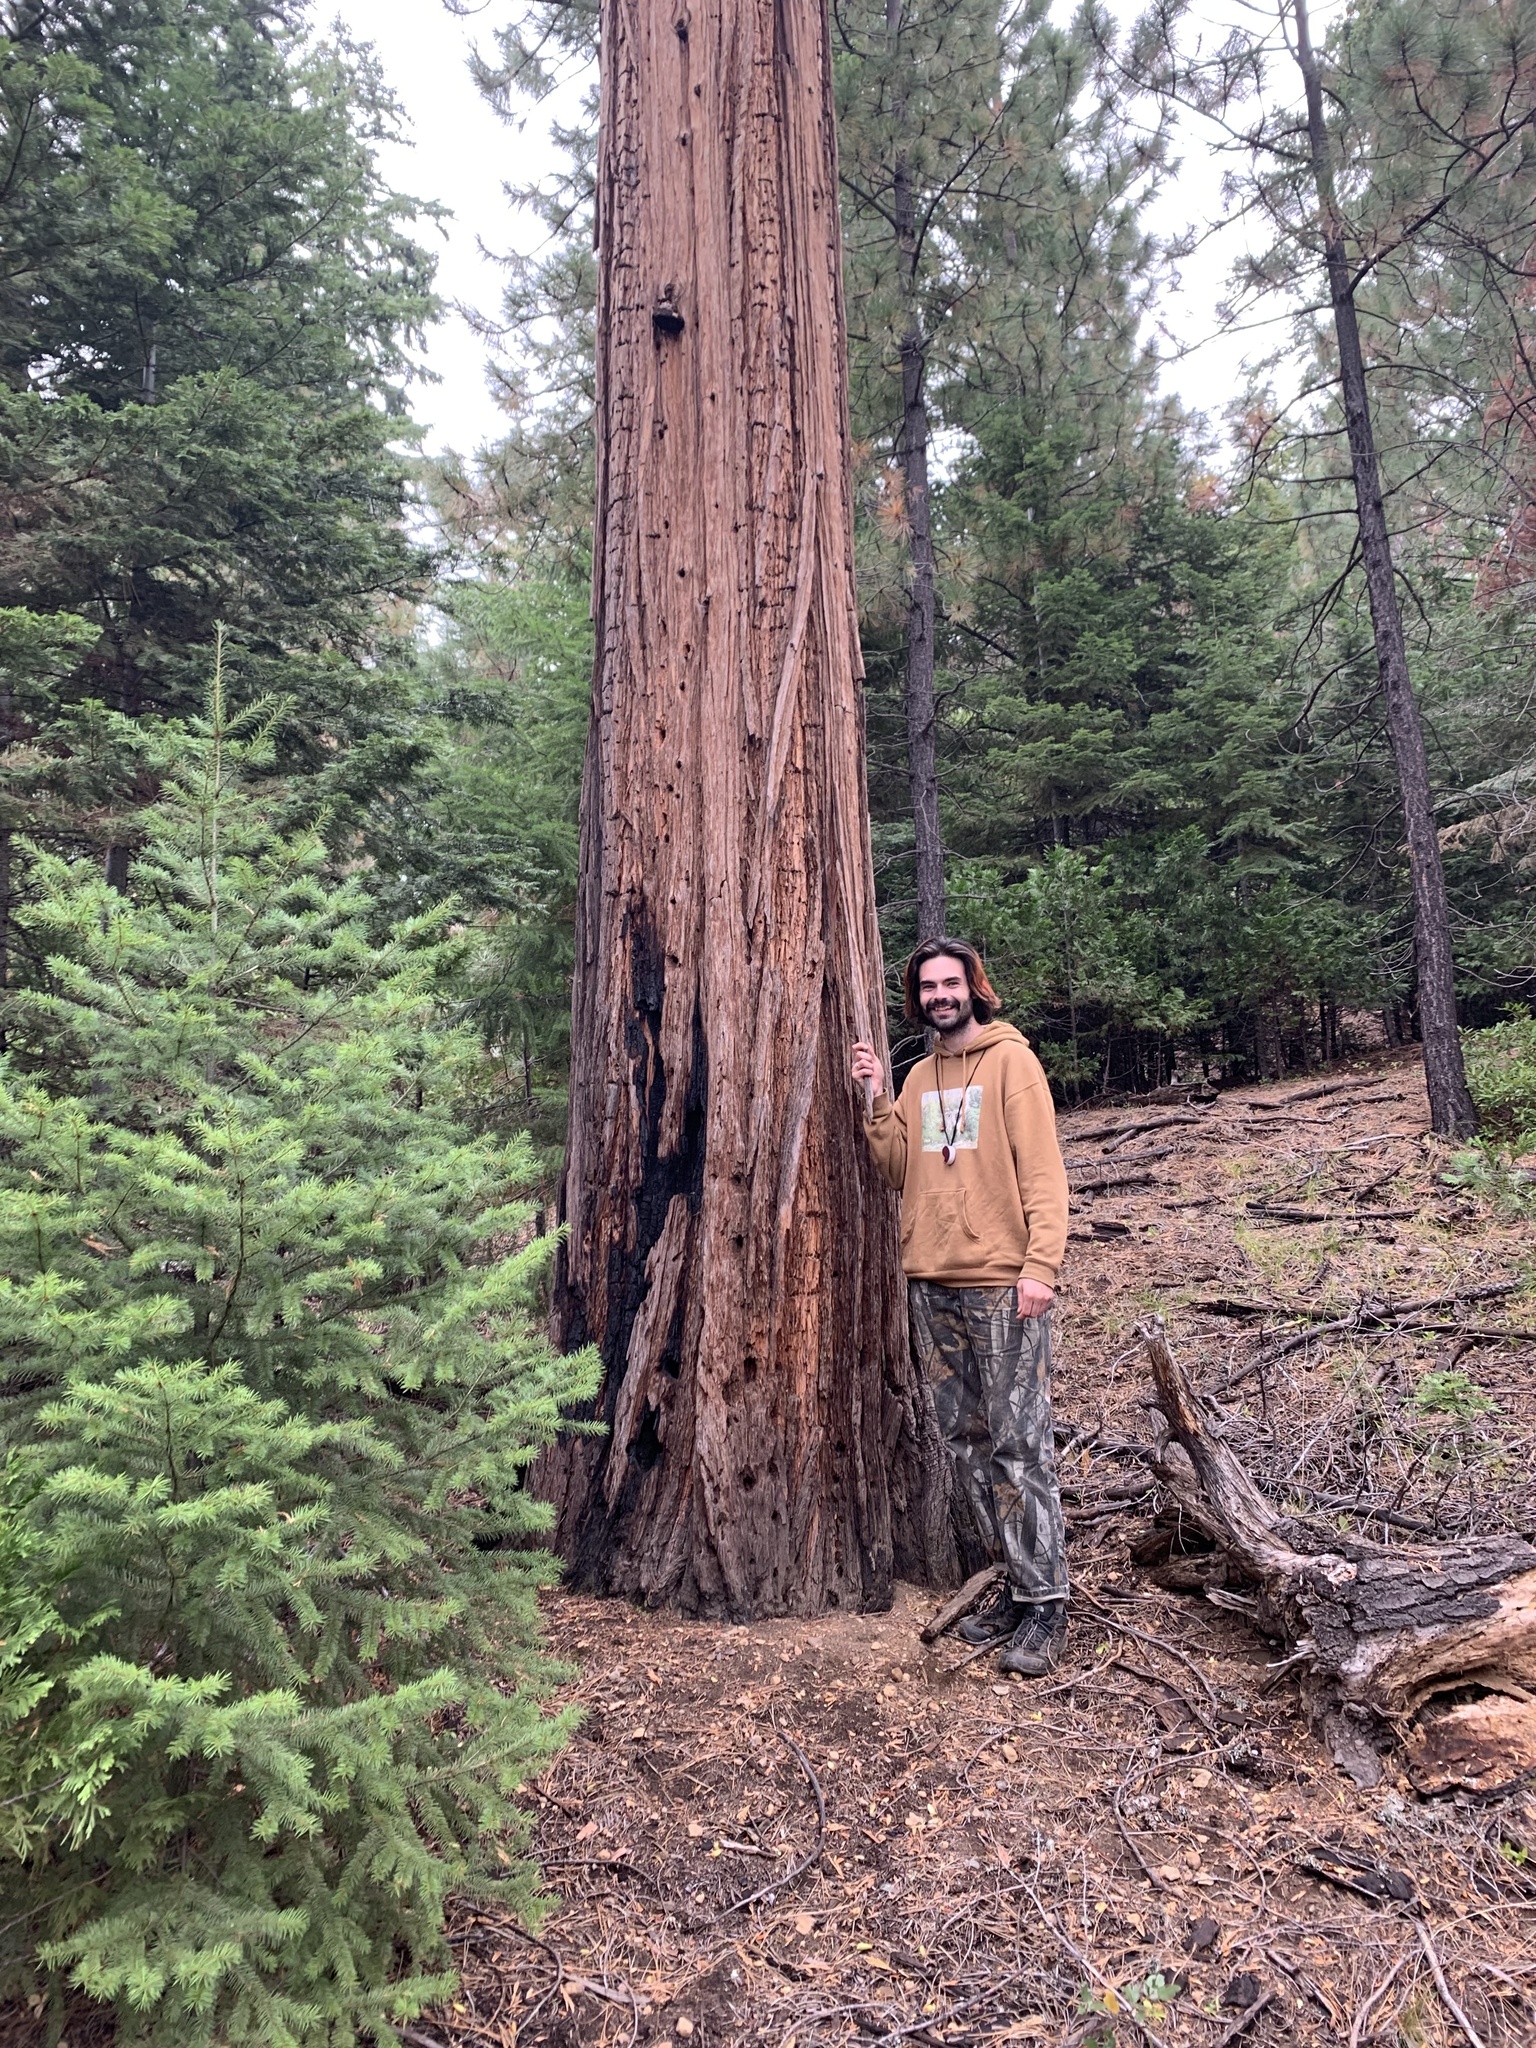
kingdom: Plantae
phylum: Tracheophyta
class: Pinopsida
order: Pinales
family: Cupressaceae
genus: Calocedrus
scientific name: Calocedrus decurrens
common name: Californian incense-cedar
